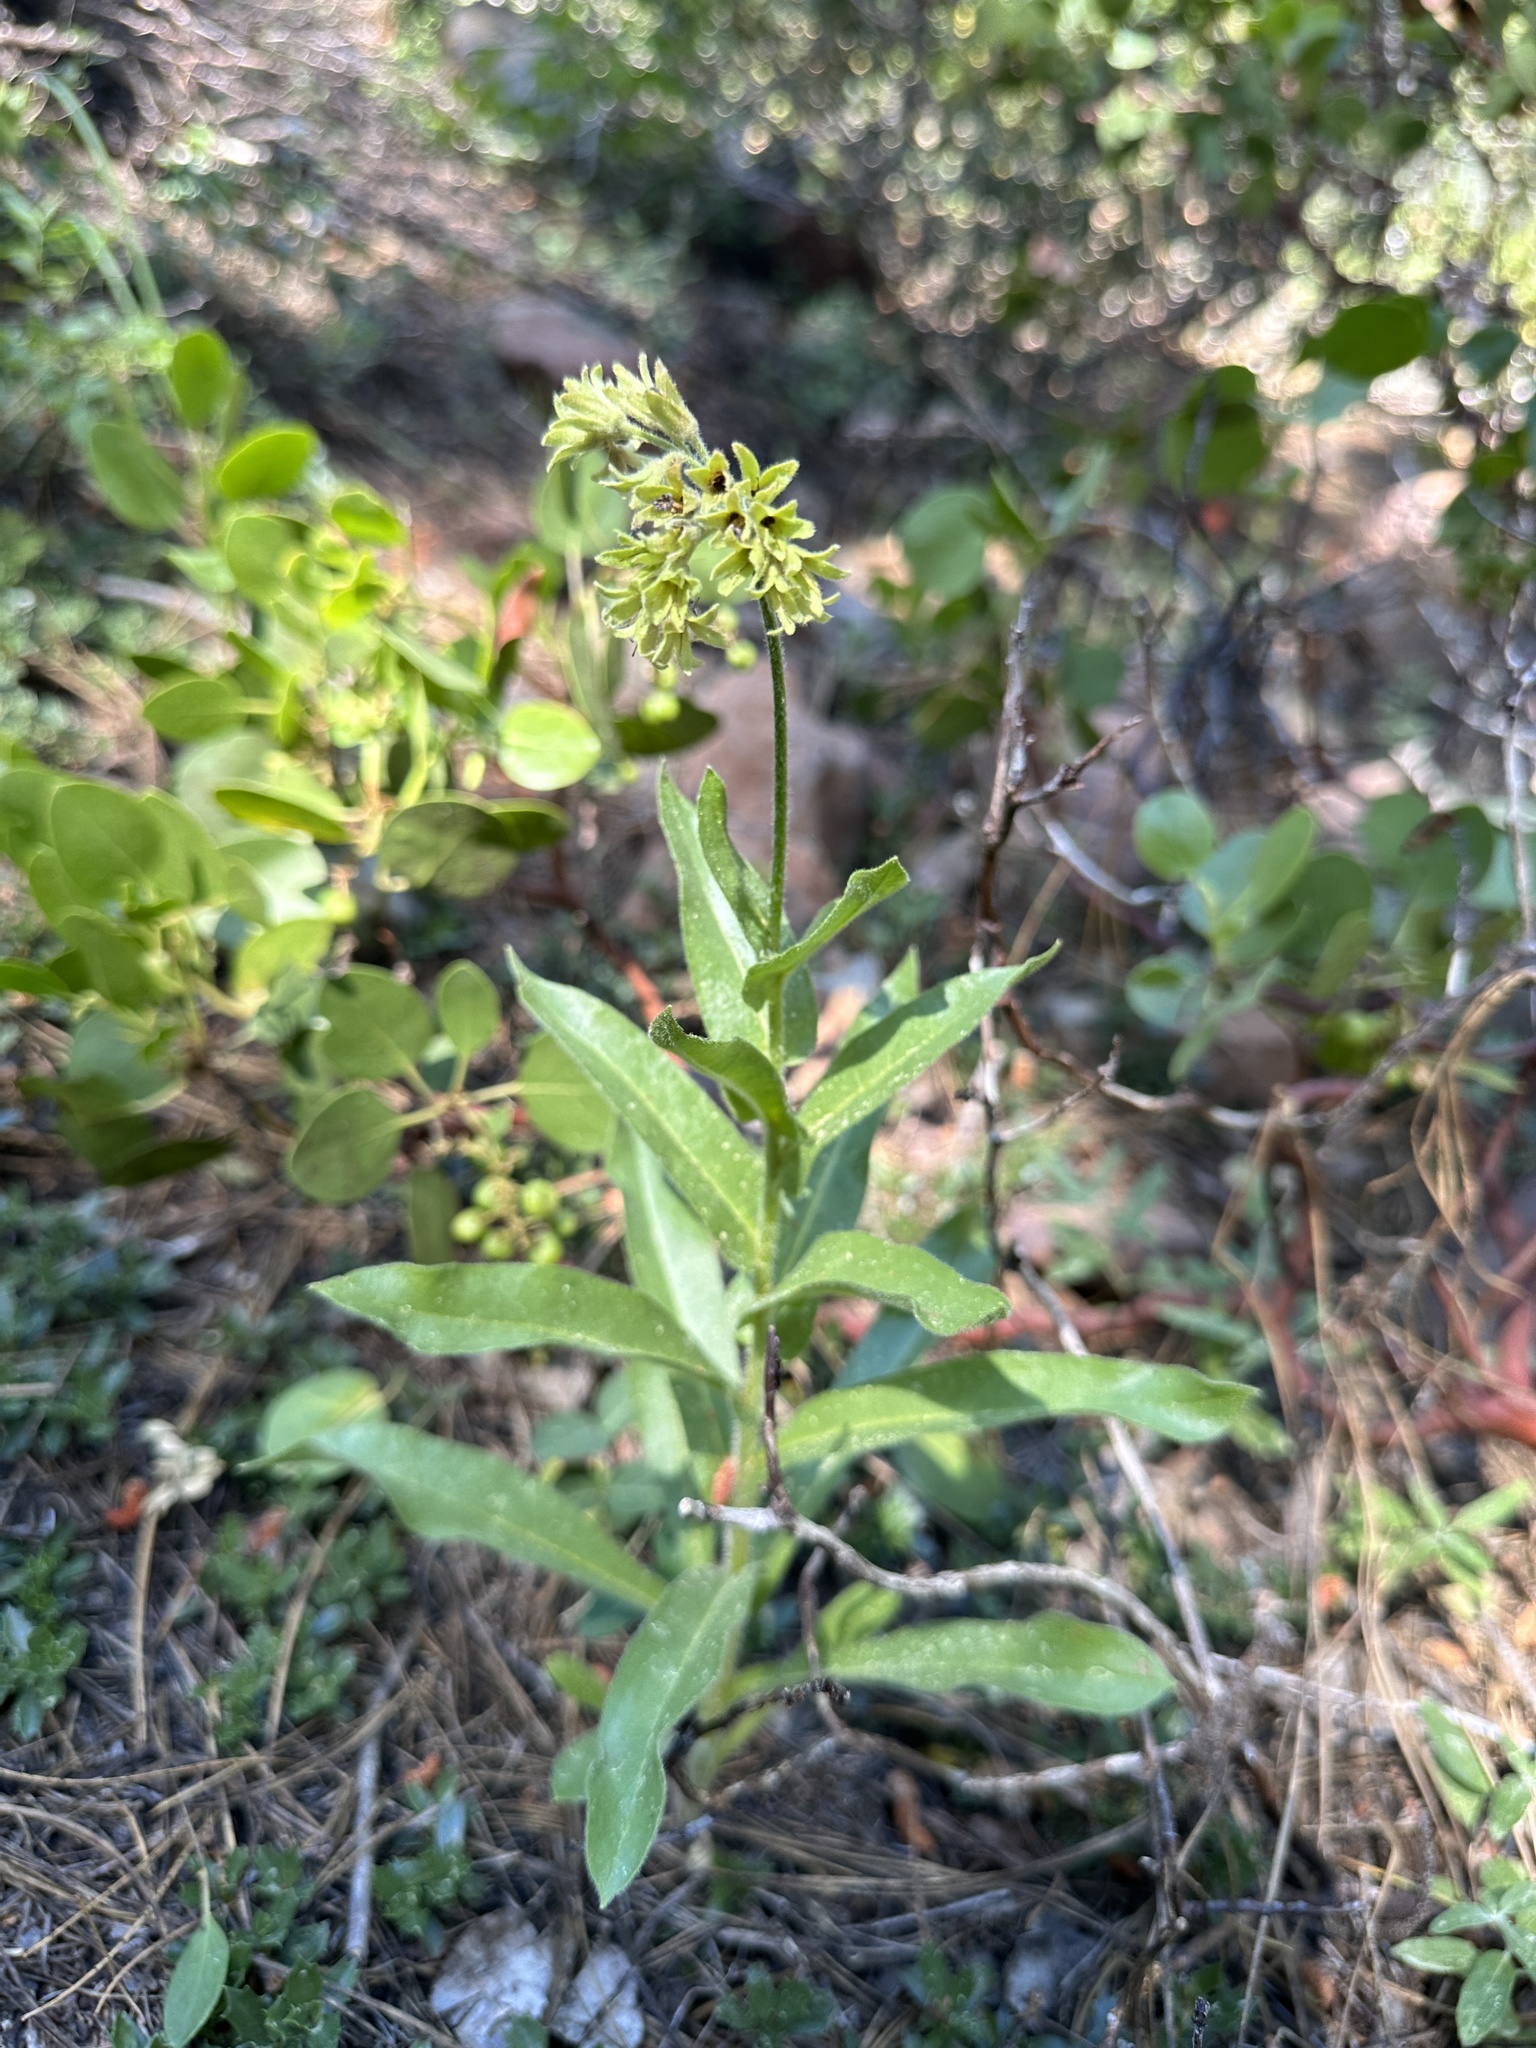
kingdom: Plantae
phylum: Tracheophyta
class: Magnoliopsida
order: Boraginales
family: Boraginaceae
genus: Andersonglossum
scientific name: Andersonglossum occidentale
